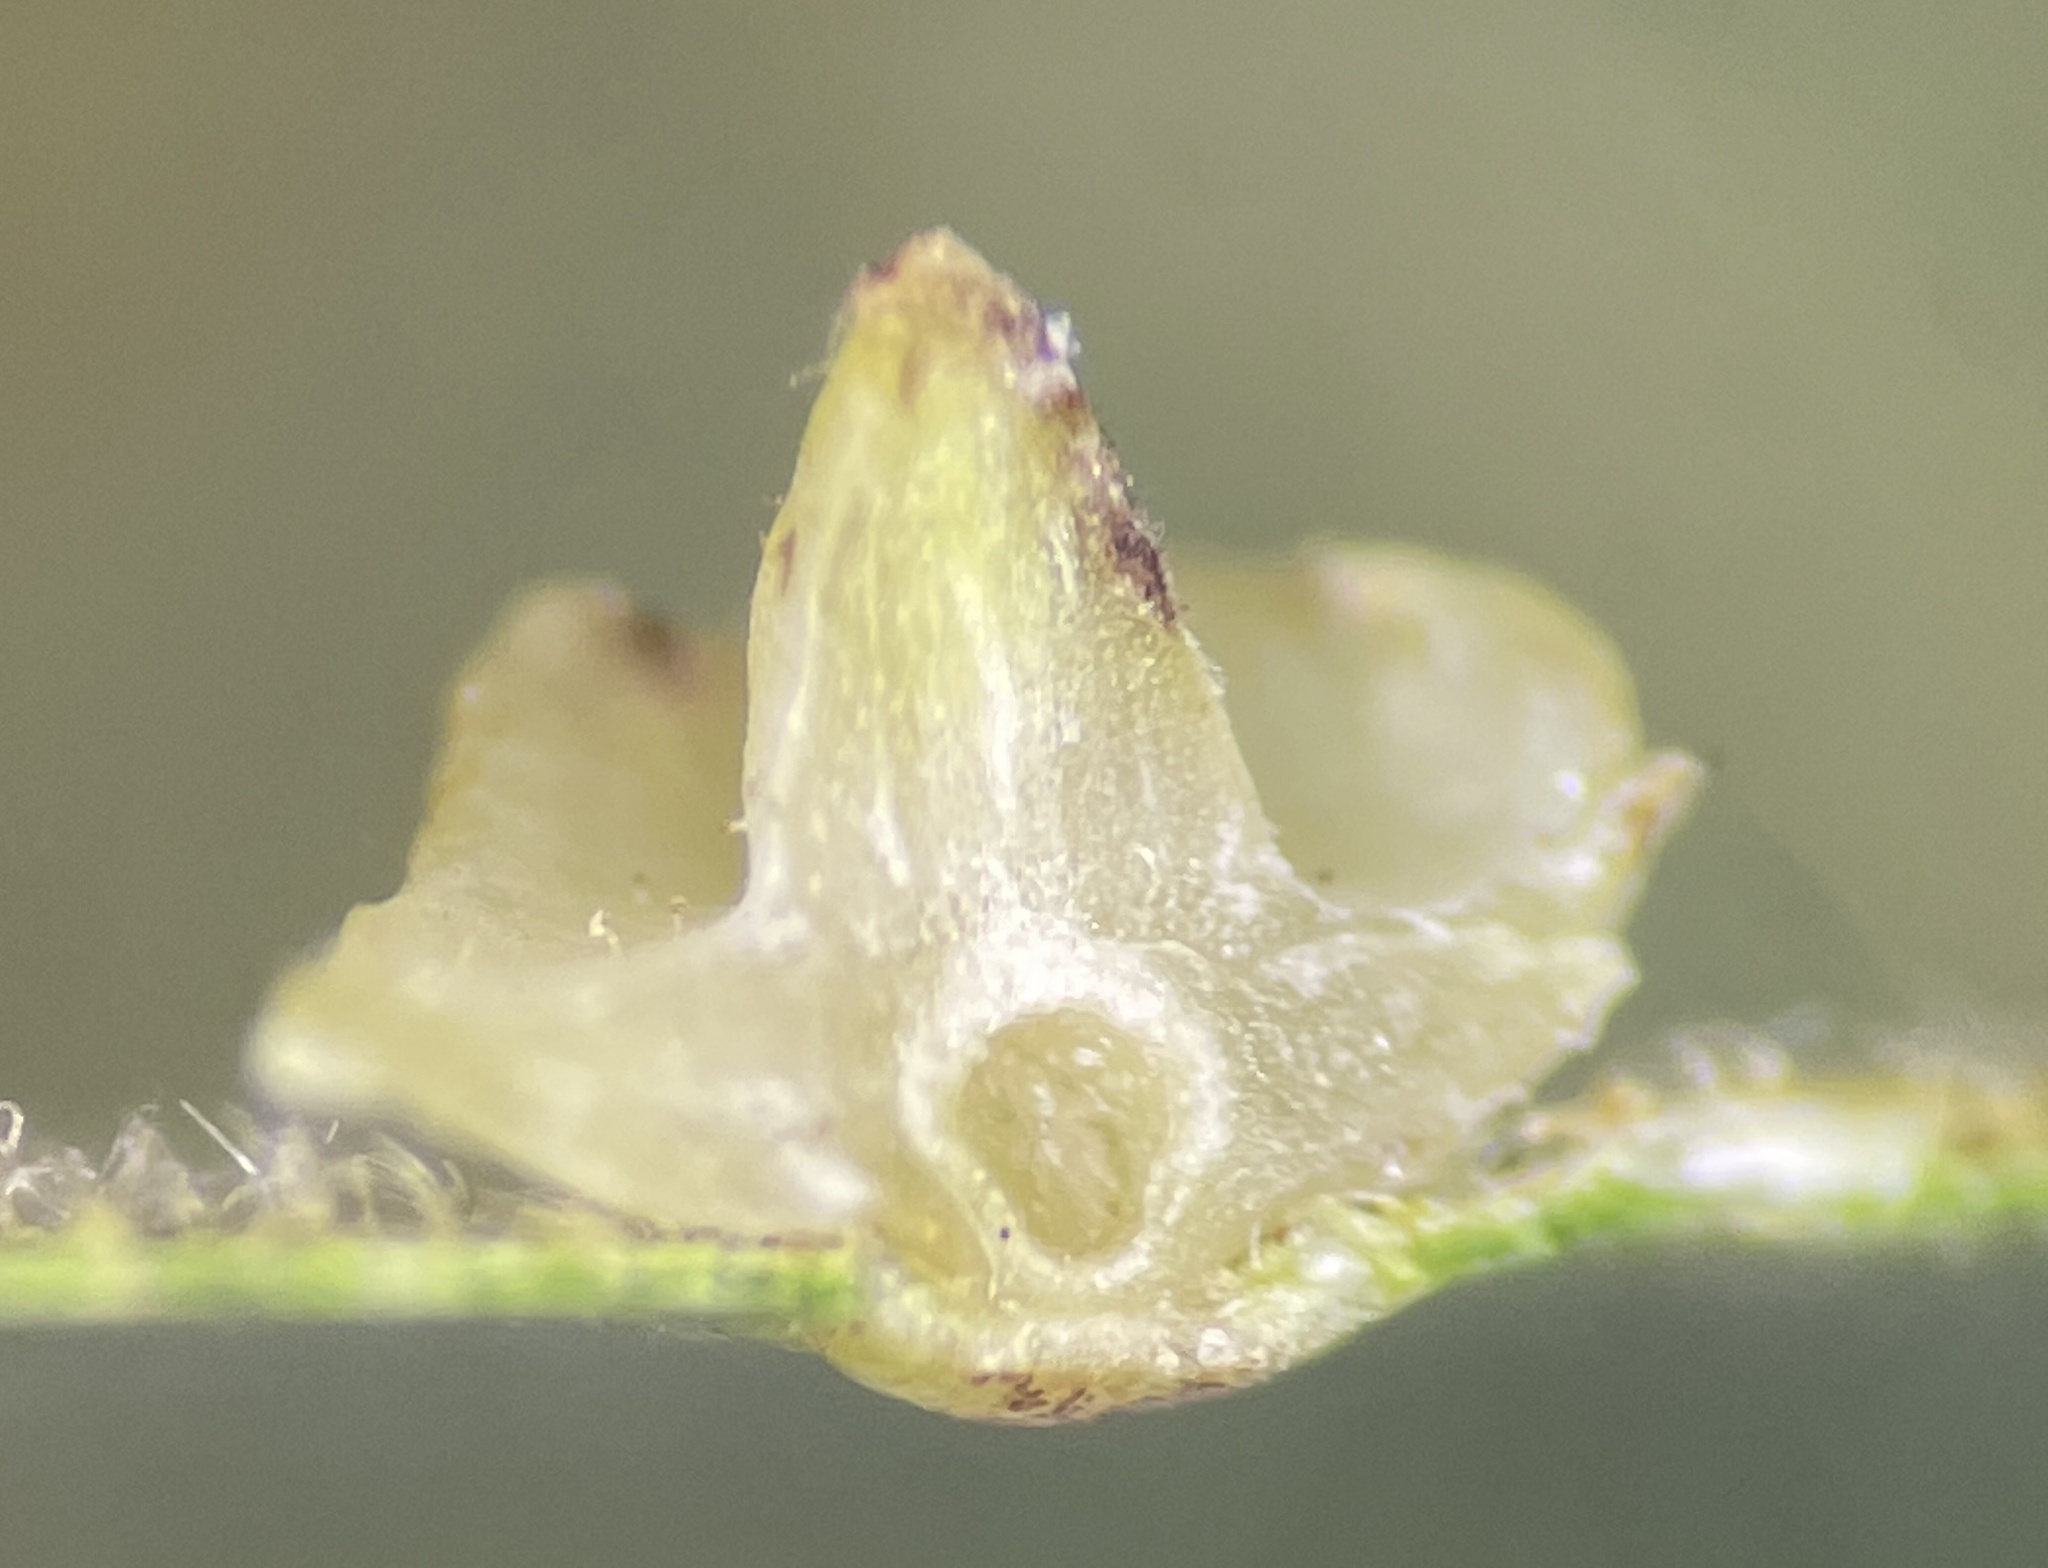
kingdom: Animalia
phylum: Arthropoda
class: Insecta
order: Diptera
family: Cecidomyiidae
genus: Caryomyia
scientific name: Caryomyia sanguinolenta
